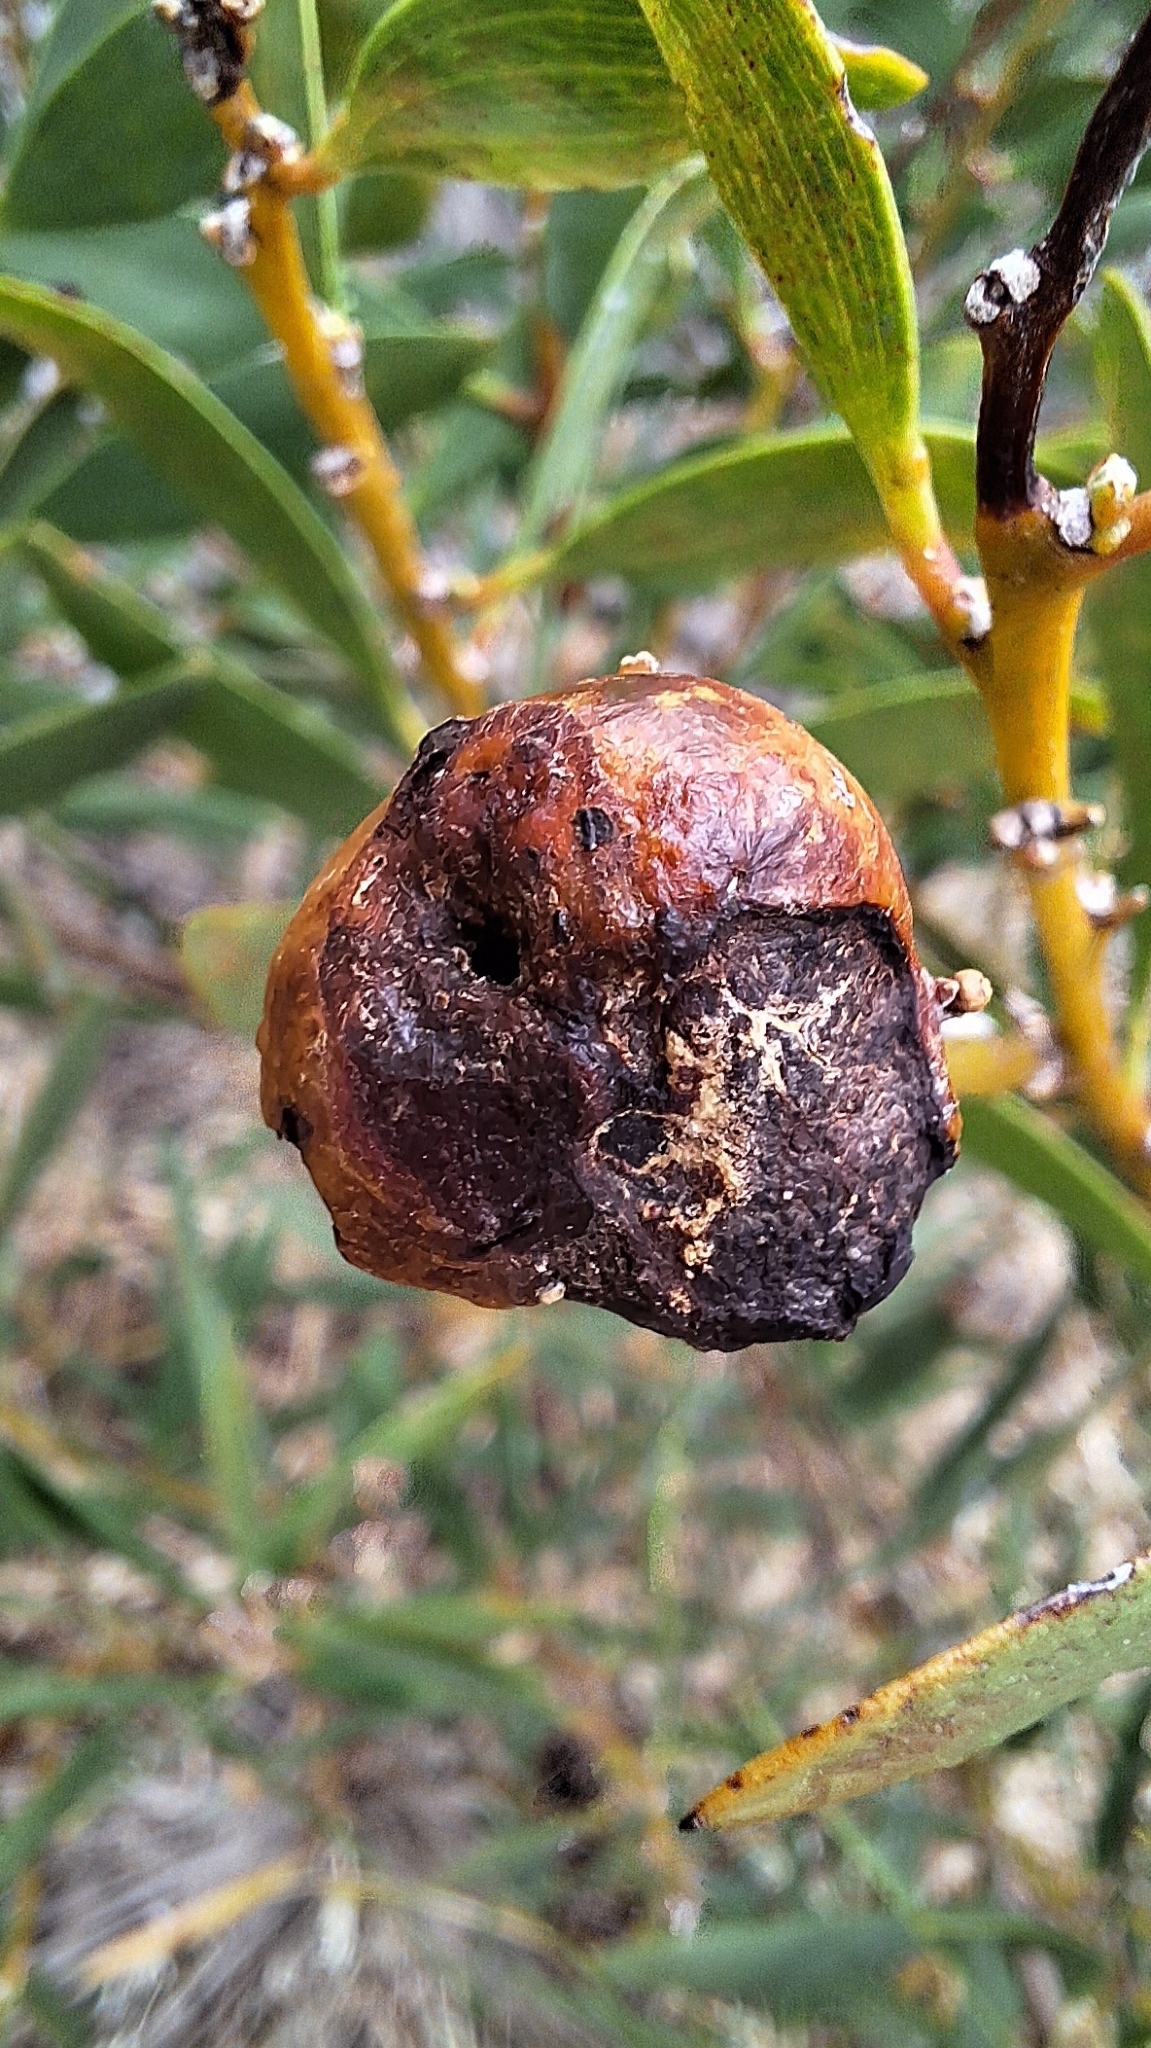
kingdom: Animalia
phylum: Arthropoda
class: Insecta
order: Hymenoptera
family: Pteromalidae
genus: Trichilogaster
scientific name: Trichilogaster acaciaelongifoliae
